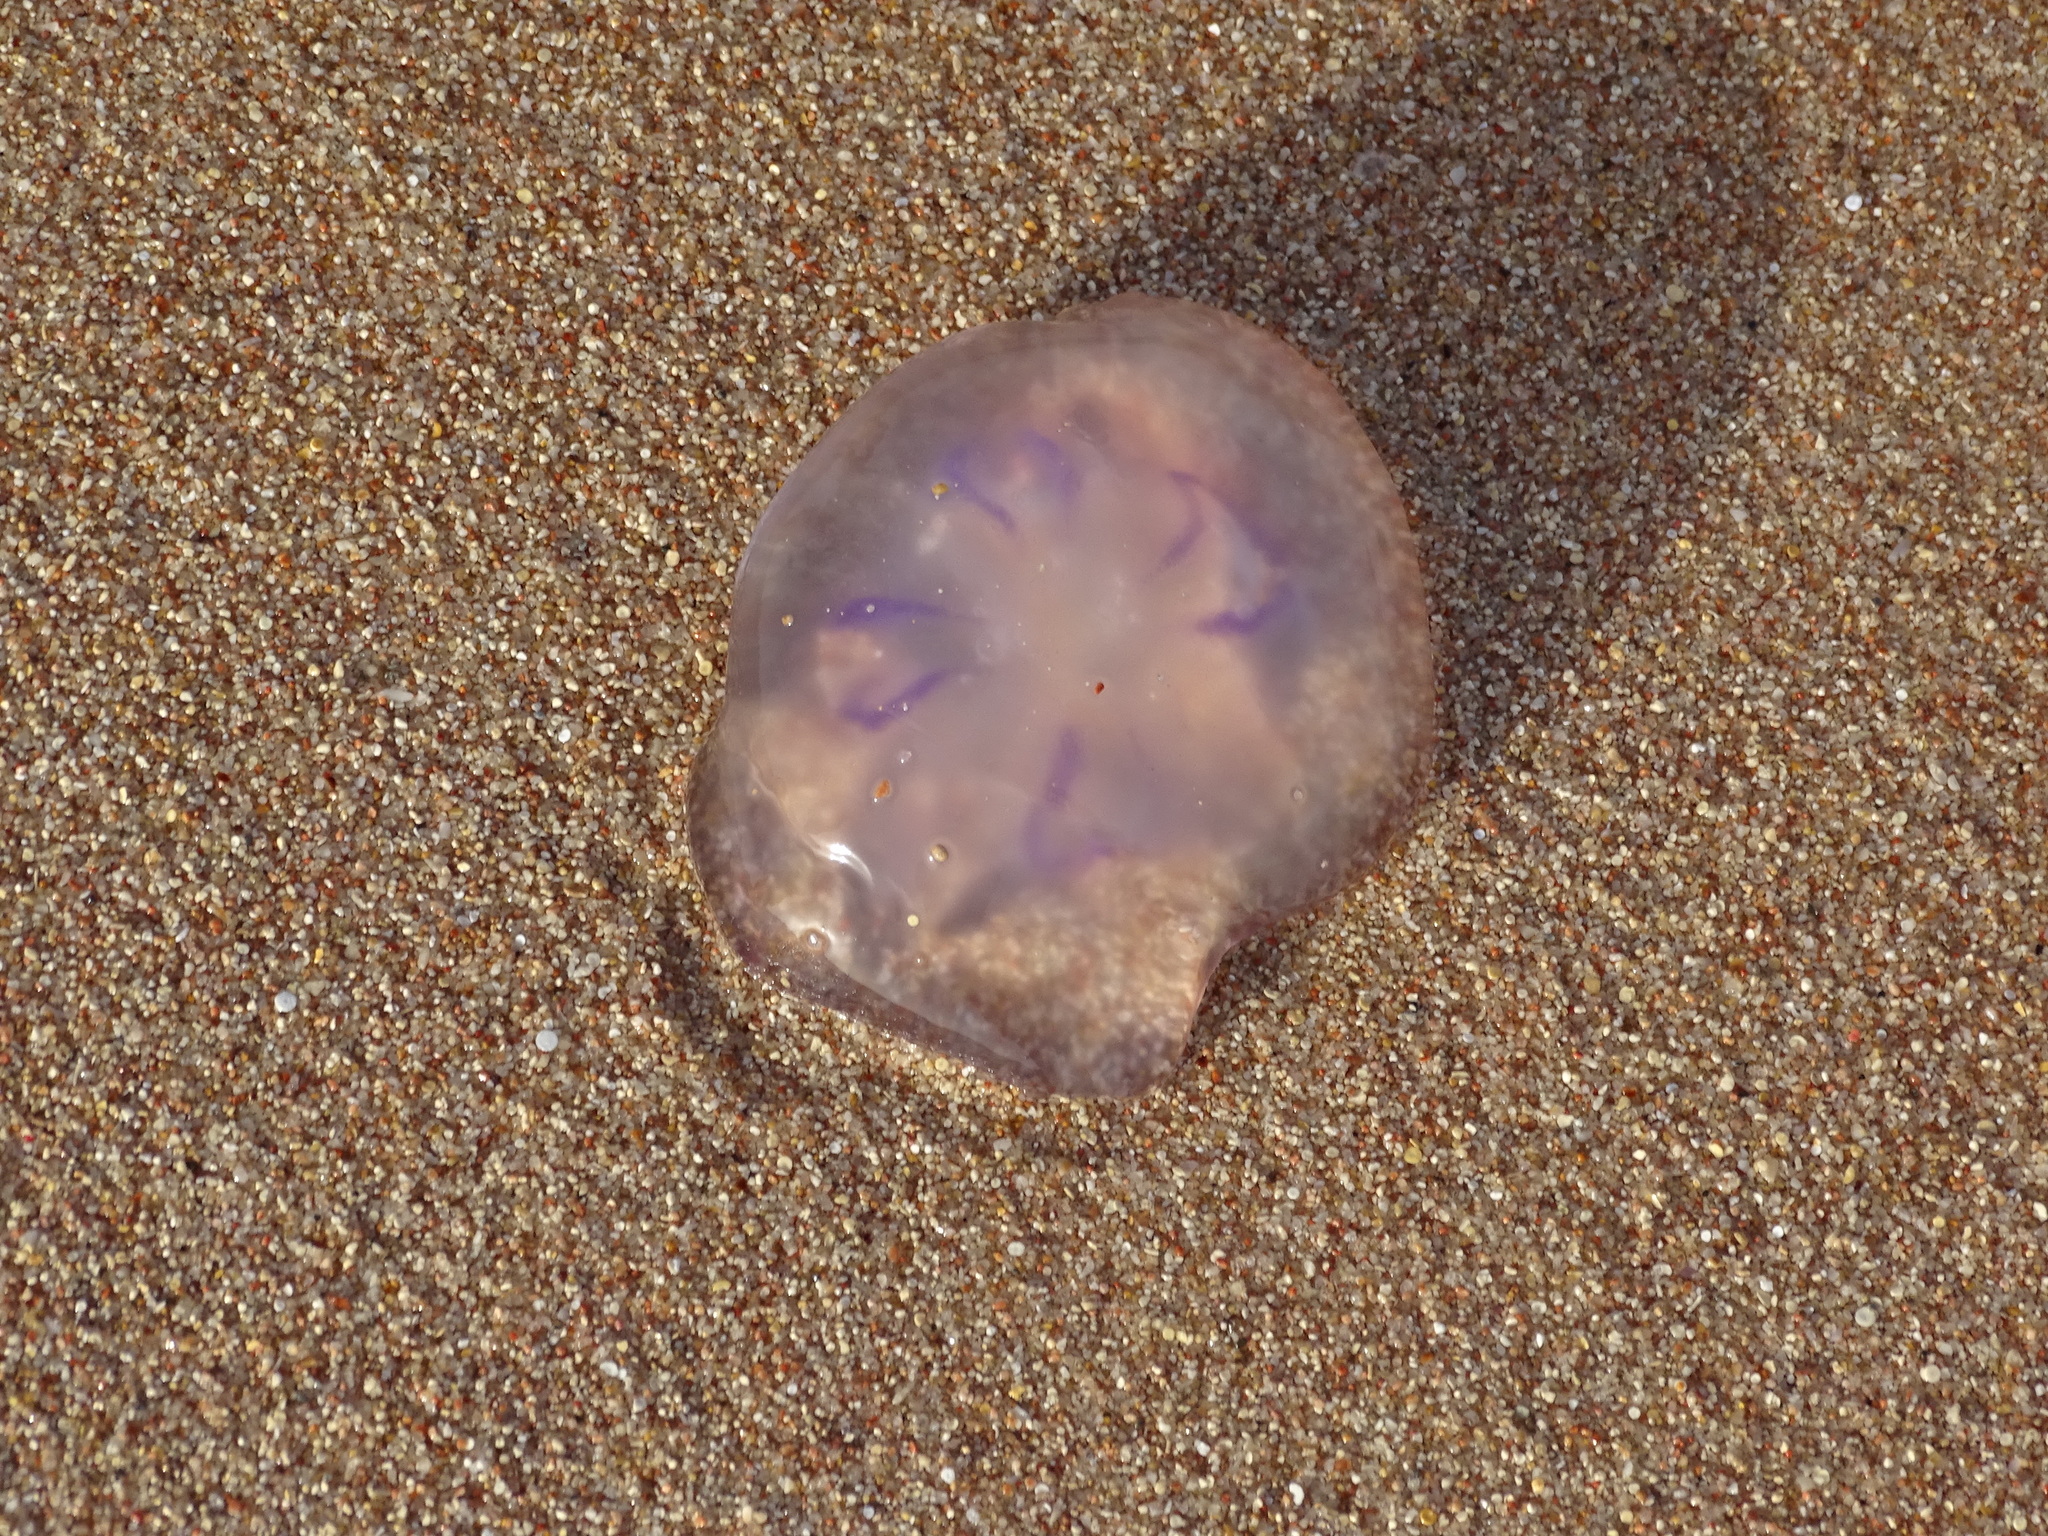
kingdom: Animalia
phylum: Cnidaria
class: Scyphozoa
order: Semaeostomeae
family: Ulmaridae
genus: Aurelia
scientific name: Aurelia solida
